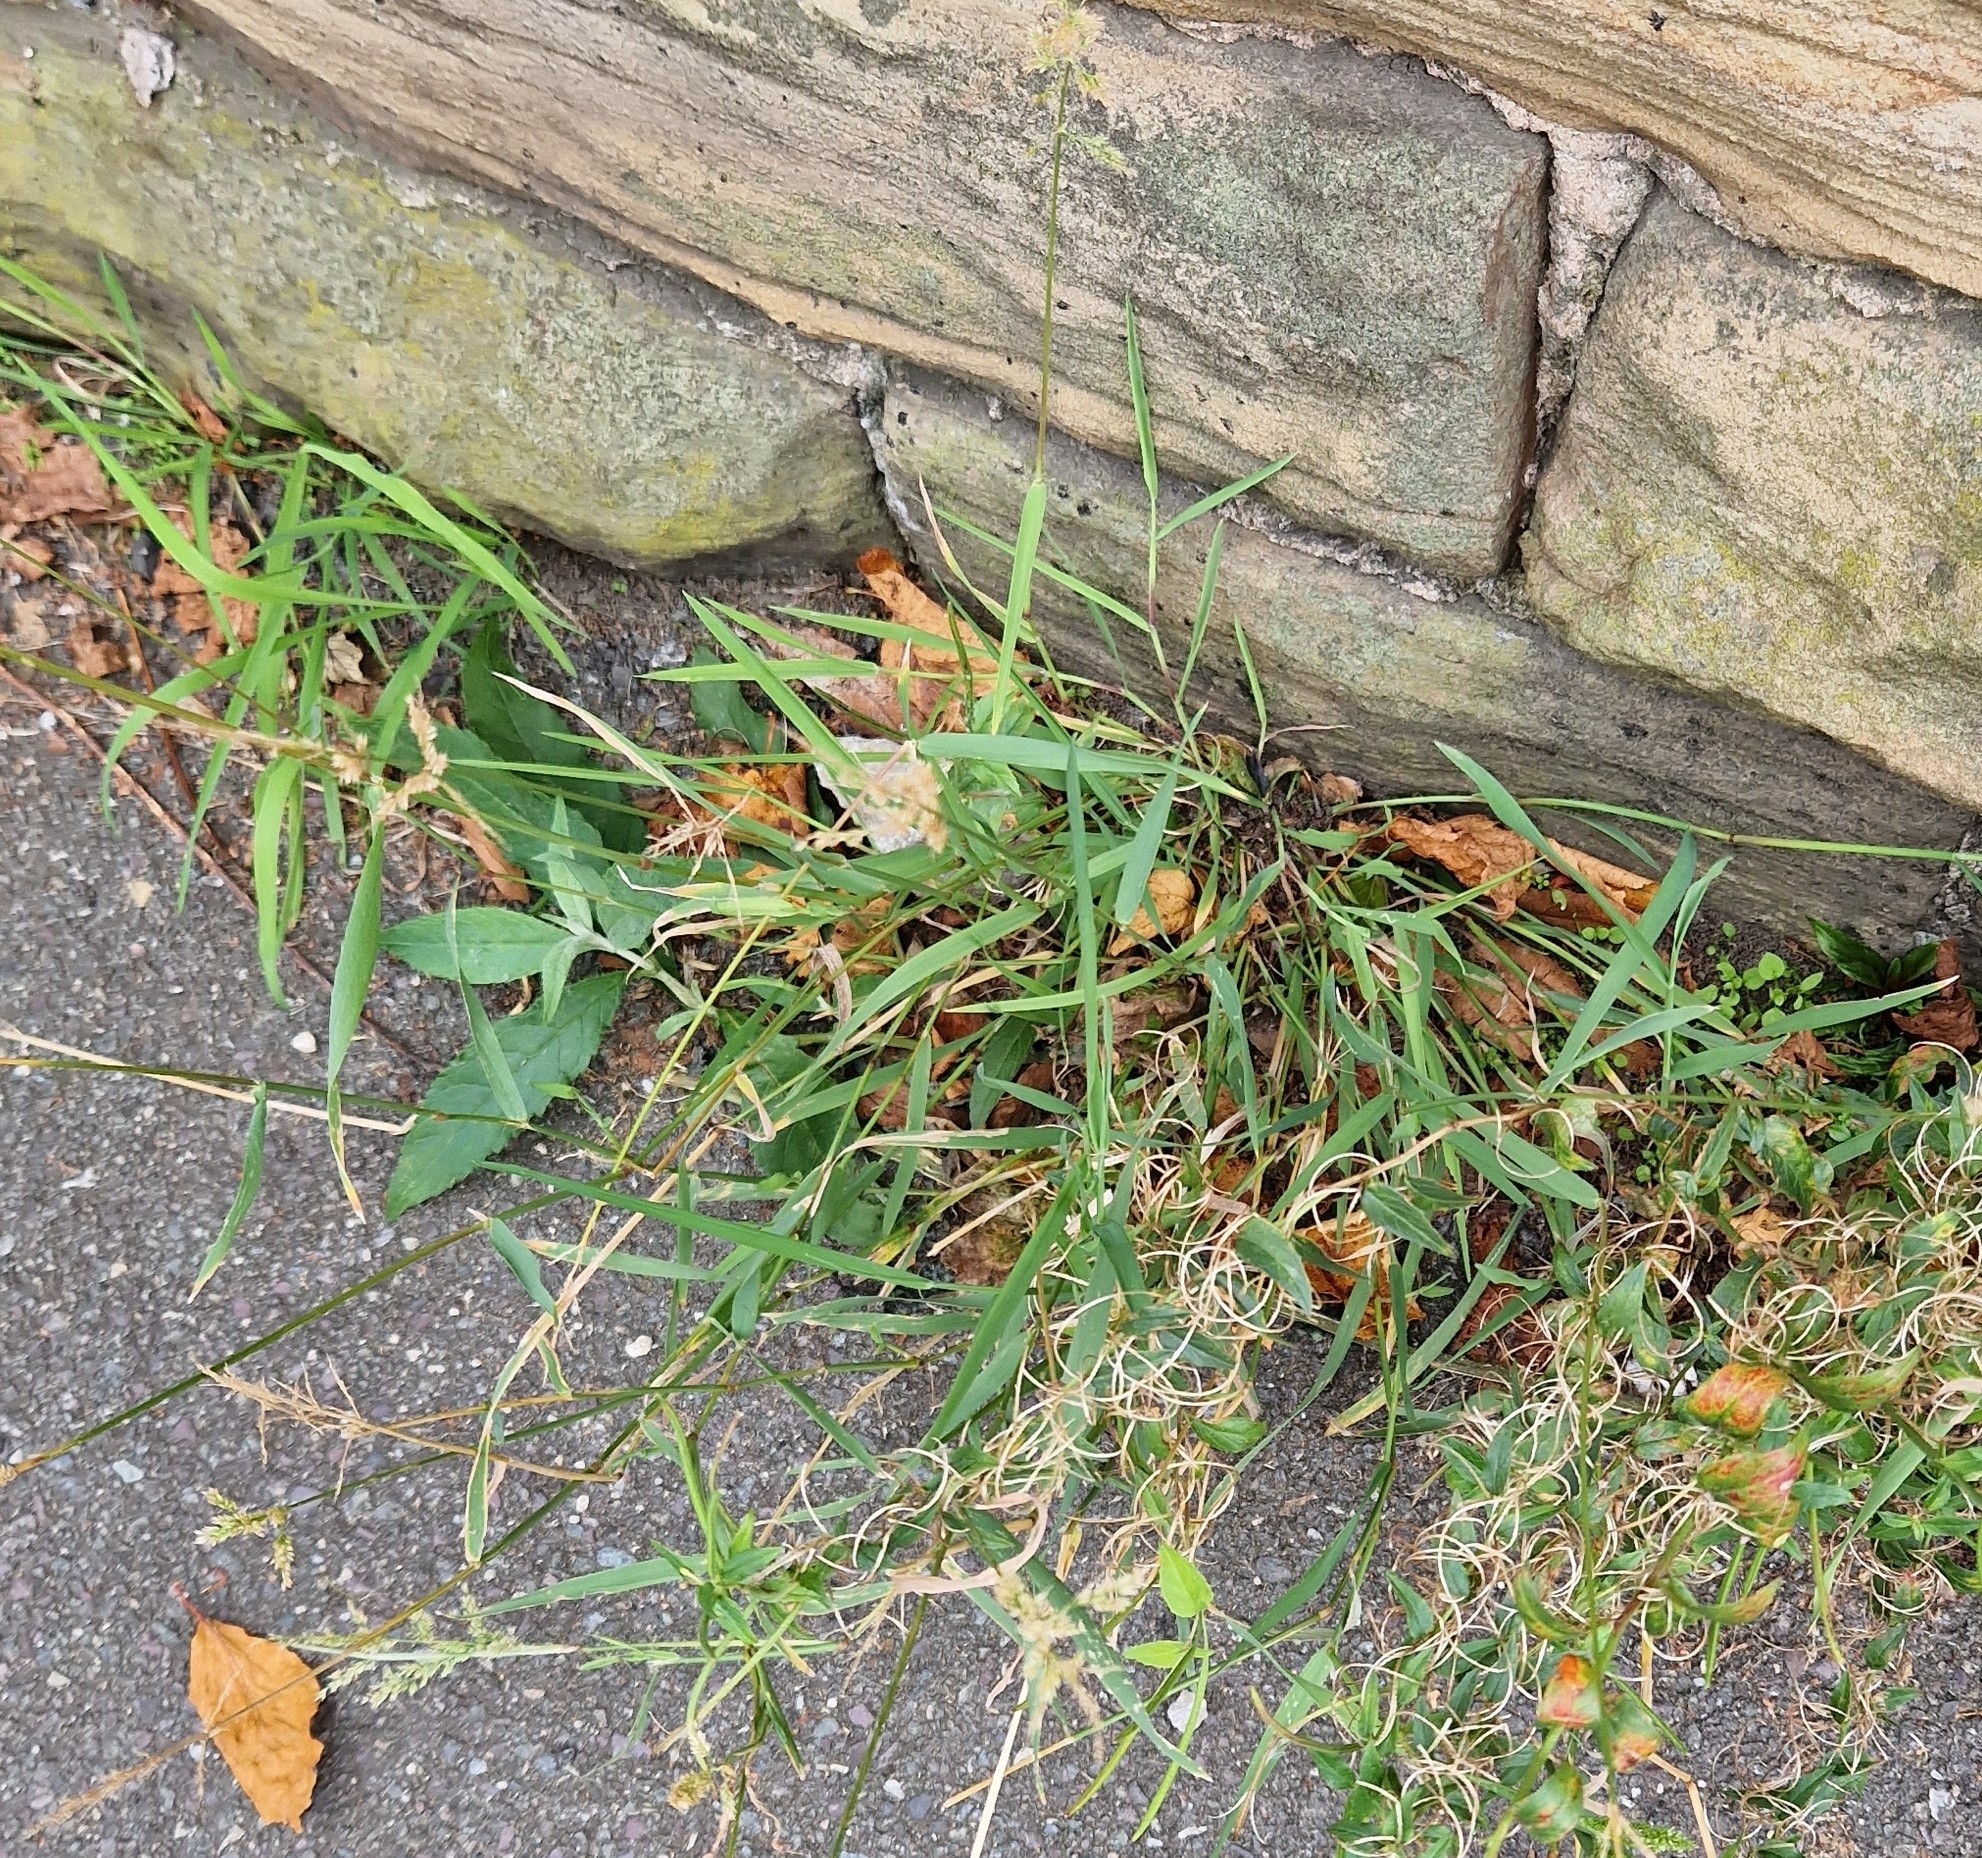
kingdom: Plantae
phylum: Tracheophyta
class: Liliopsida
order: Poales
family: Poaceae
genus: Polypogon
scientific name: Polypogon viridis
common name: Water bent
